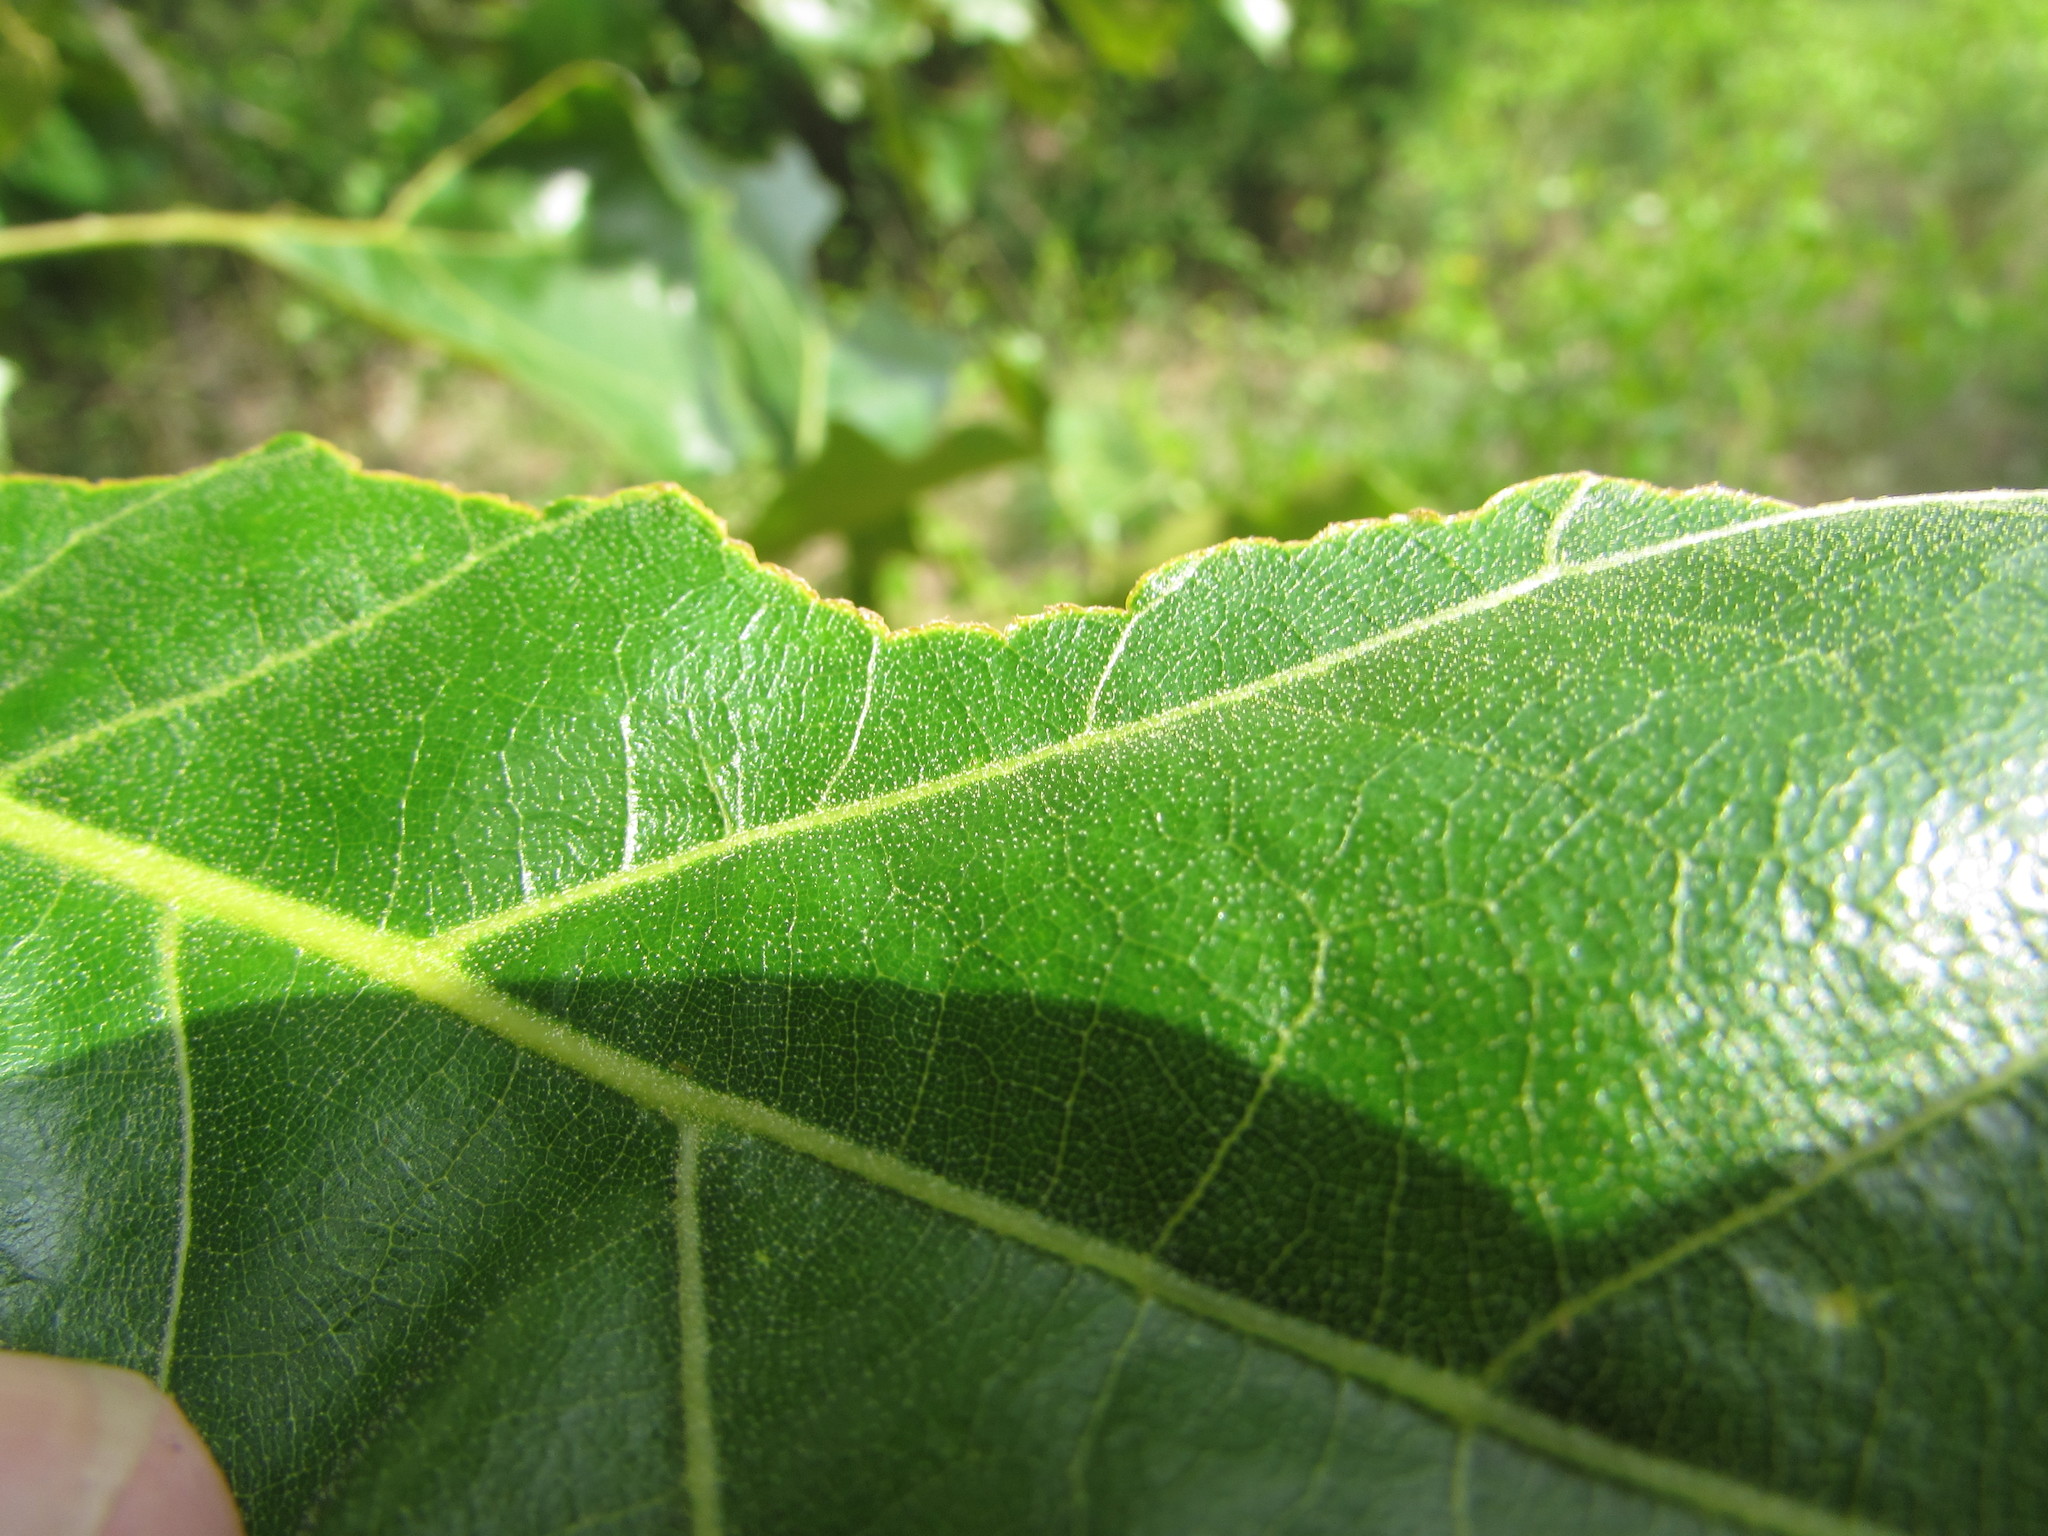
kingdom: Plantae
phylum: Tracheophyta
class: Magnoliopsida
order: Fagales
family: Fagaceae
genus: Quercus
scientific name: Quercus marilandica
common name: Blackjack oak
